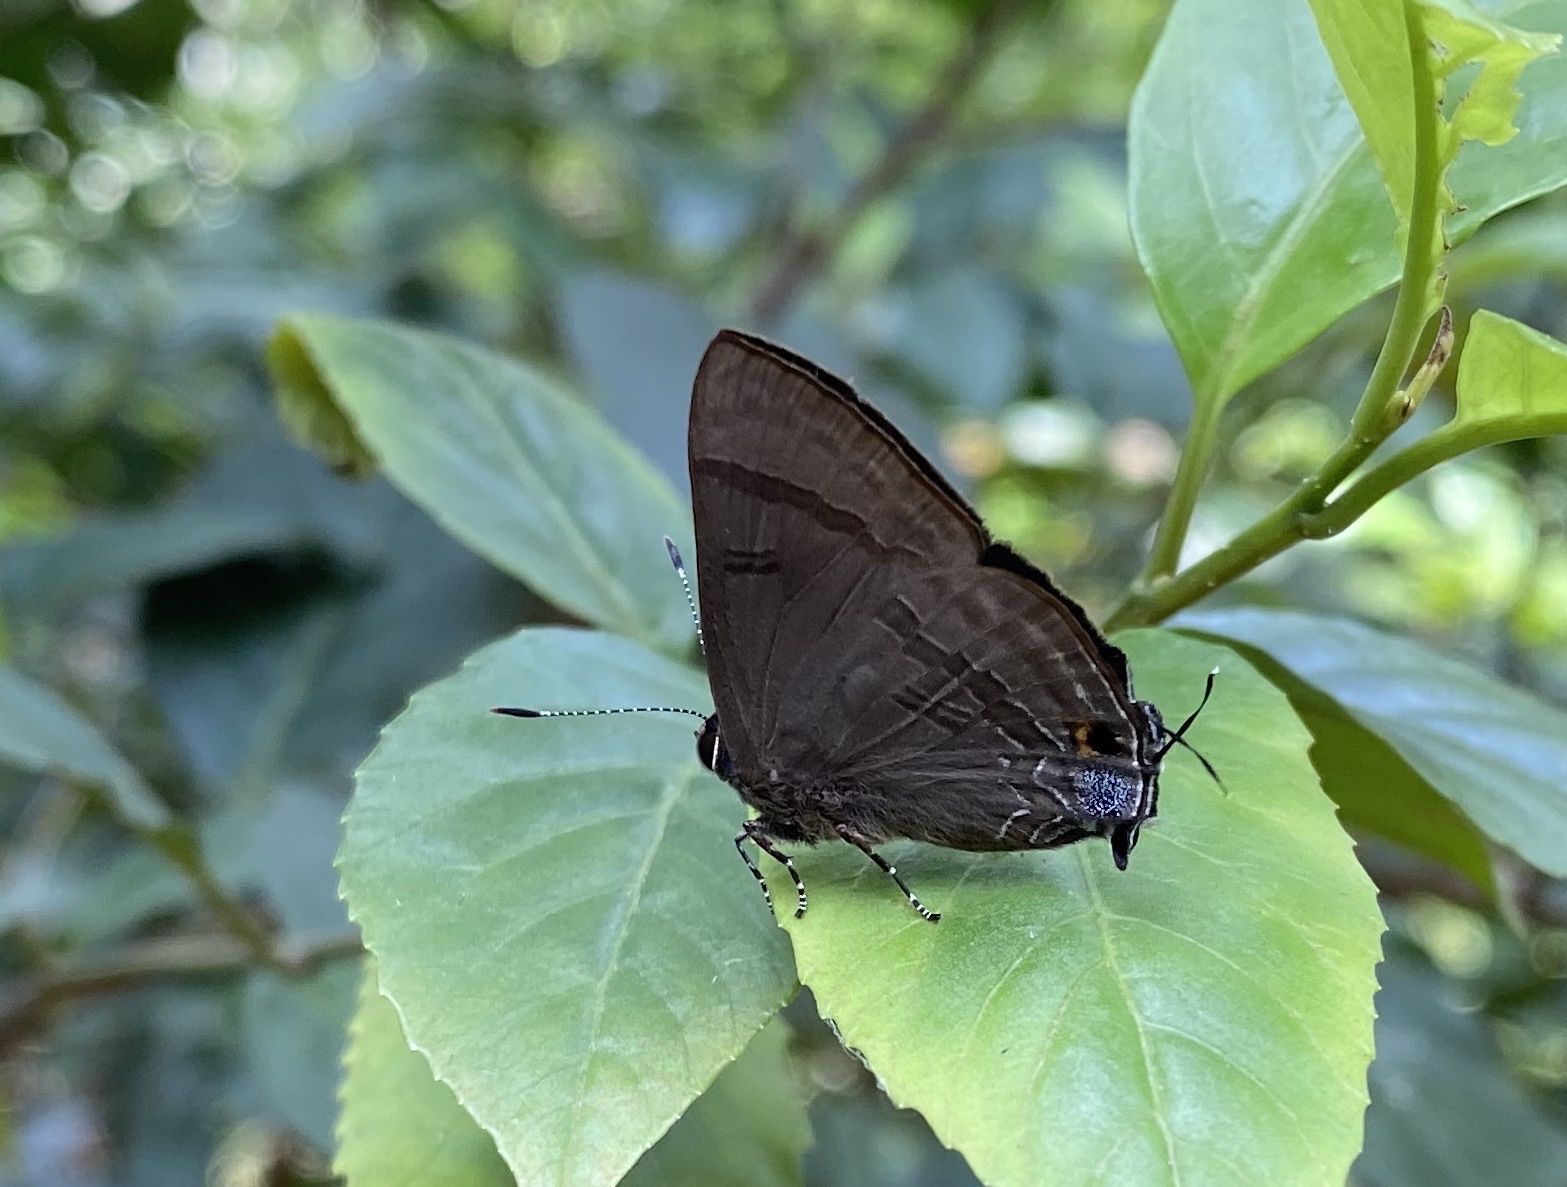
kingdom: Animalia
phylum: Arthropoda
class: Insecta
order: Lepidoptera
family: Lycaenidae
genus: Rapala
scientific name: Rapala varuna
